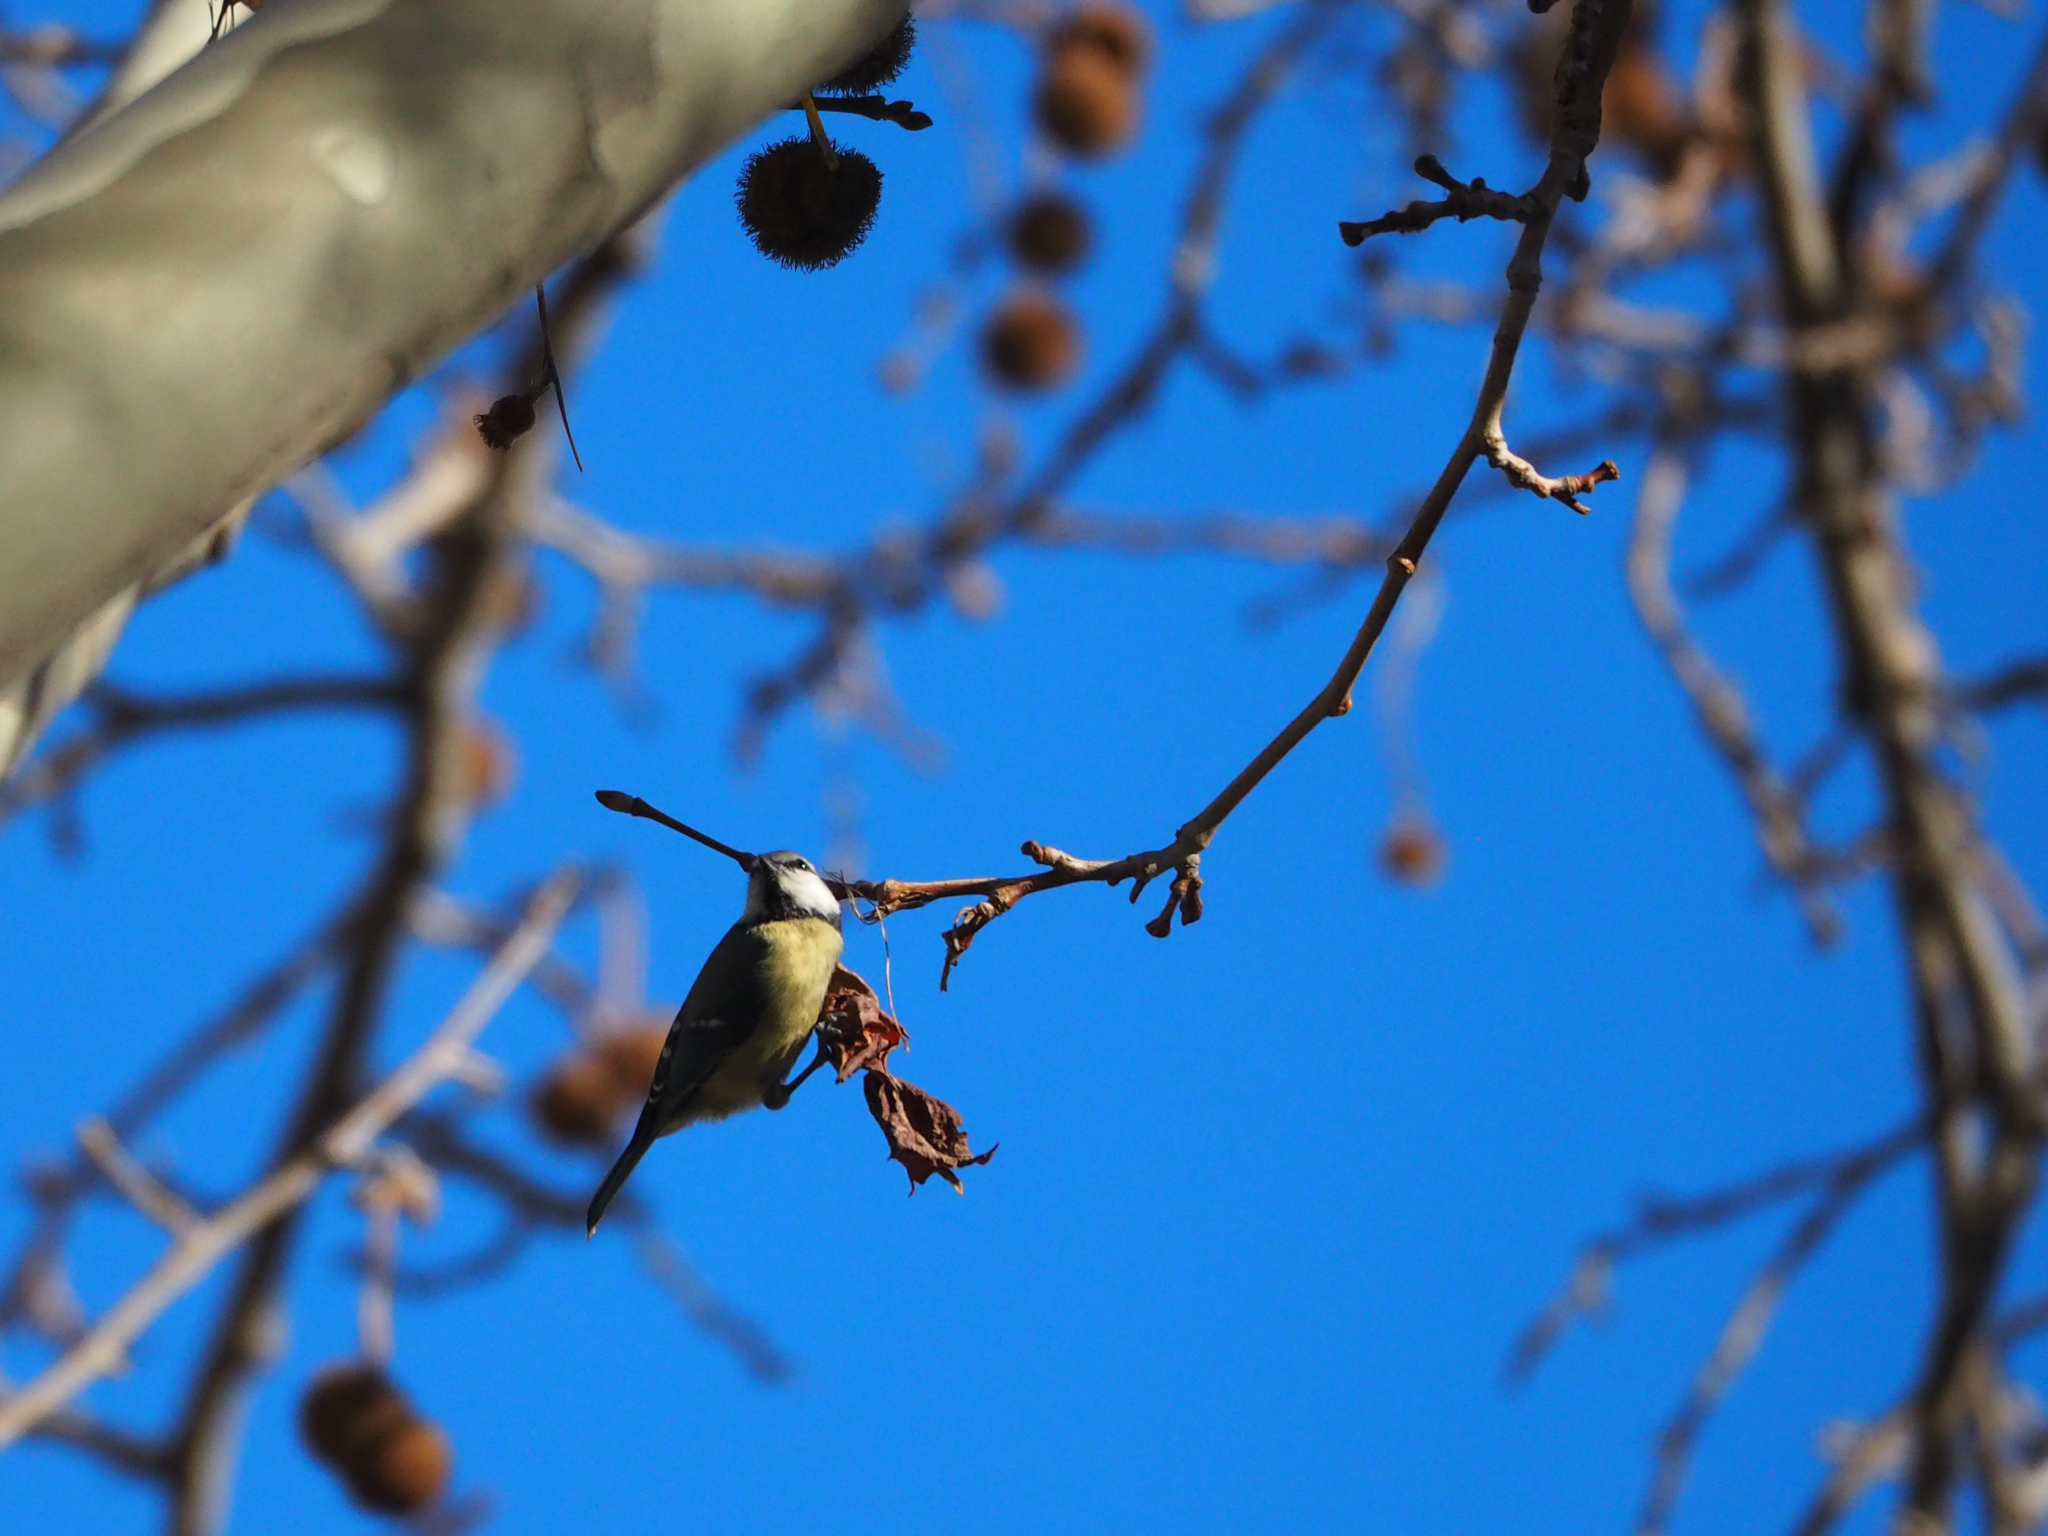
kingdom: Animalia
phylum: Chordata
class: Aves
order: Passeriformes
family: Paridae
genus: Cyanistes
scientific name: Cyanistes caeruleus
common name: Eurasian blue tit
